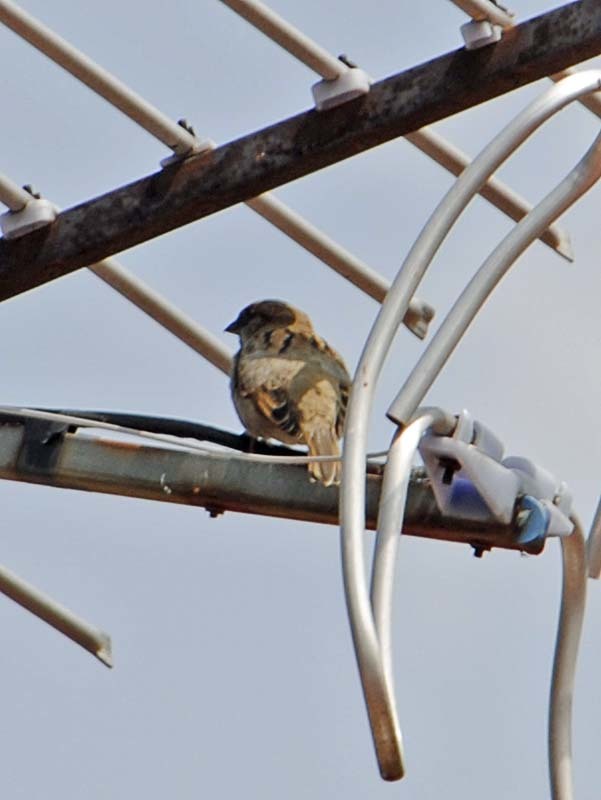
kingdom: Animalia
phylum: Chordata
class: Aves
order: Passeriformes
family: Passeridae
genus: Passer
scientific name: Passer domesticus
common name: House sparrow
